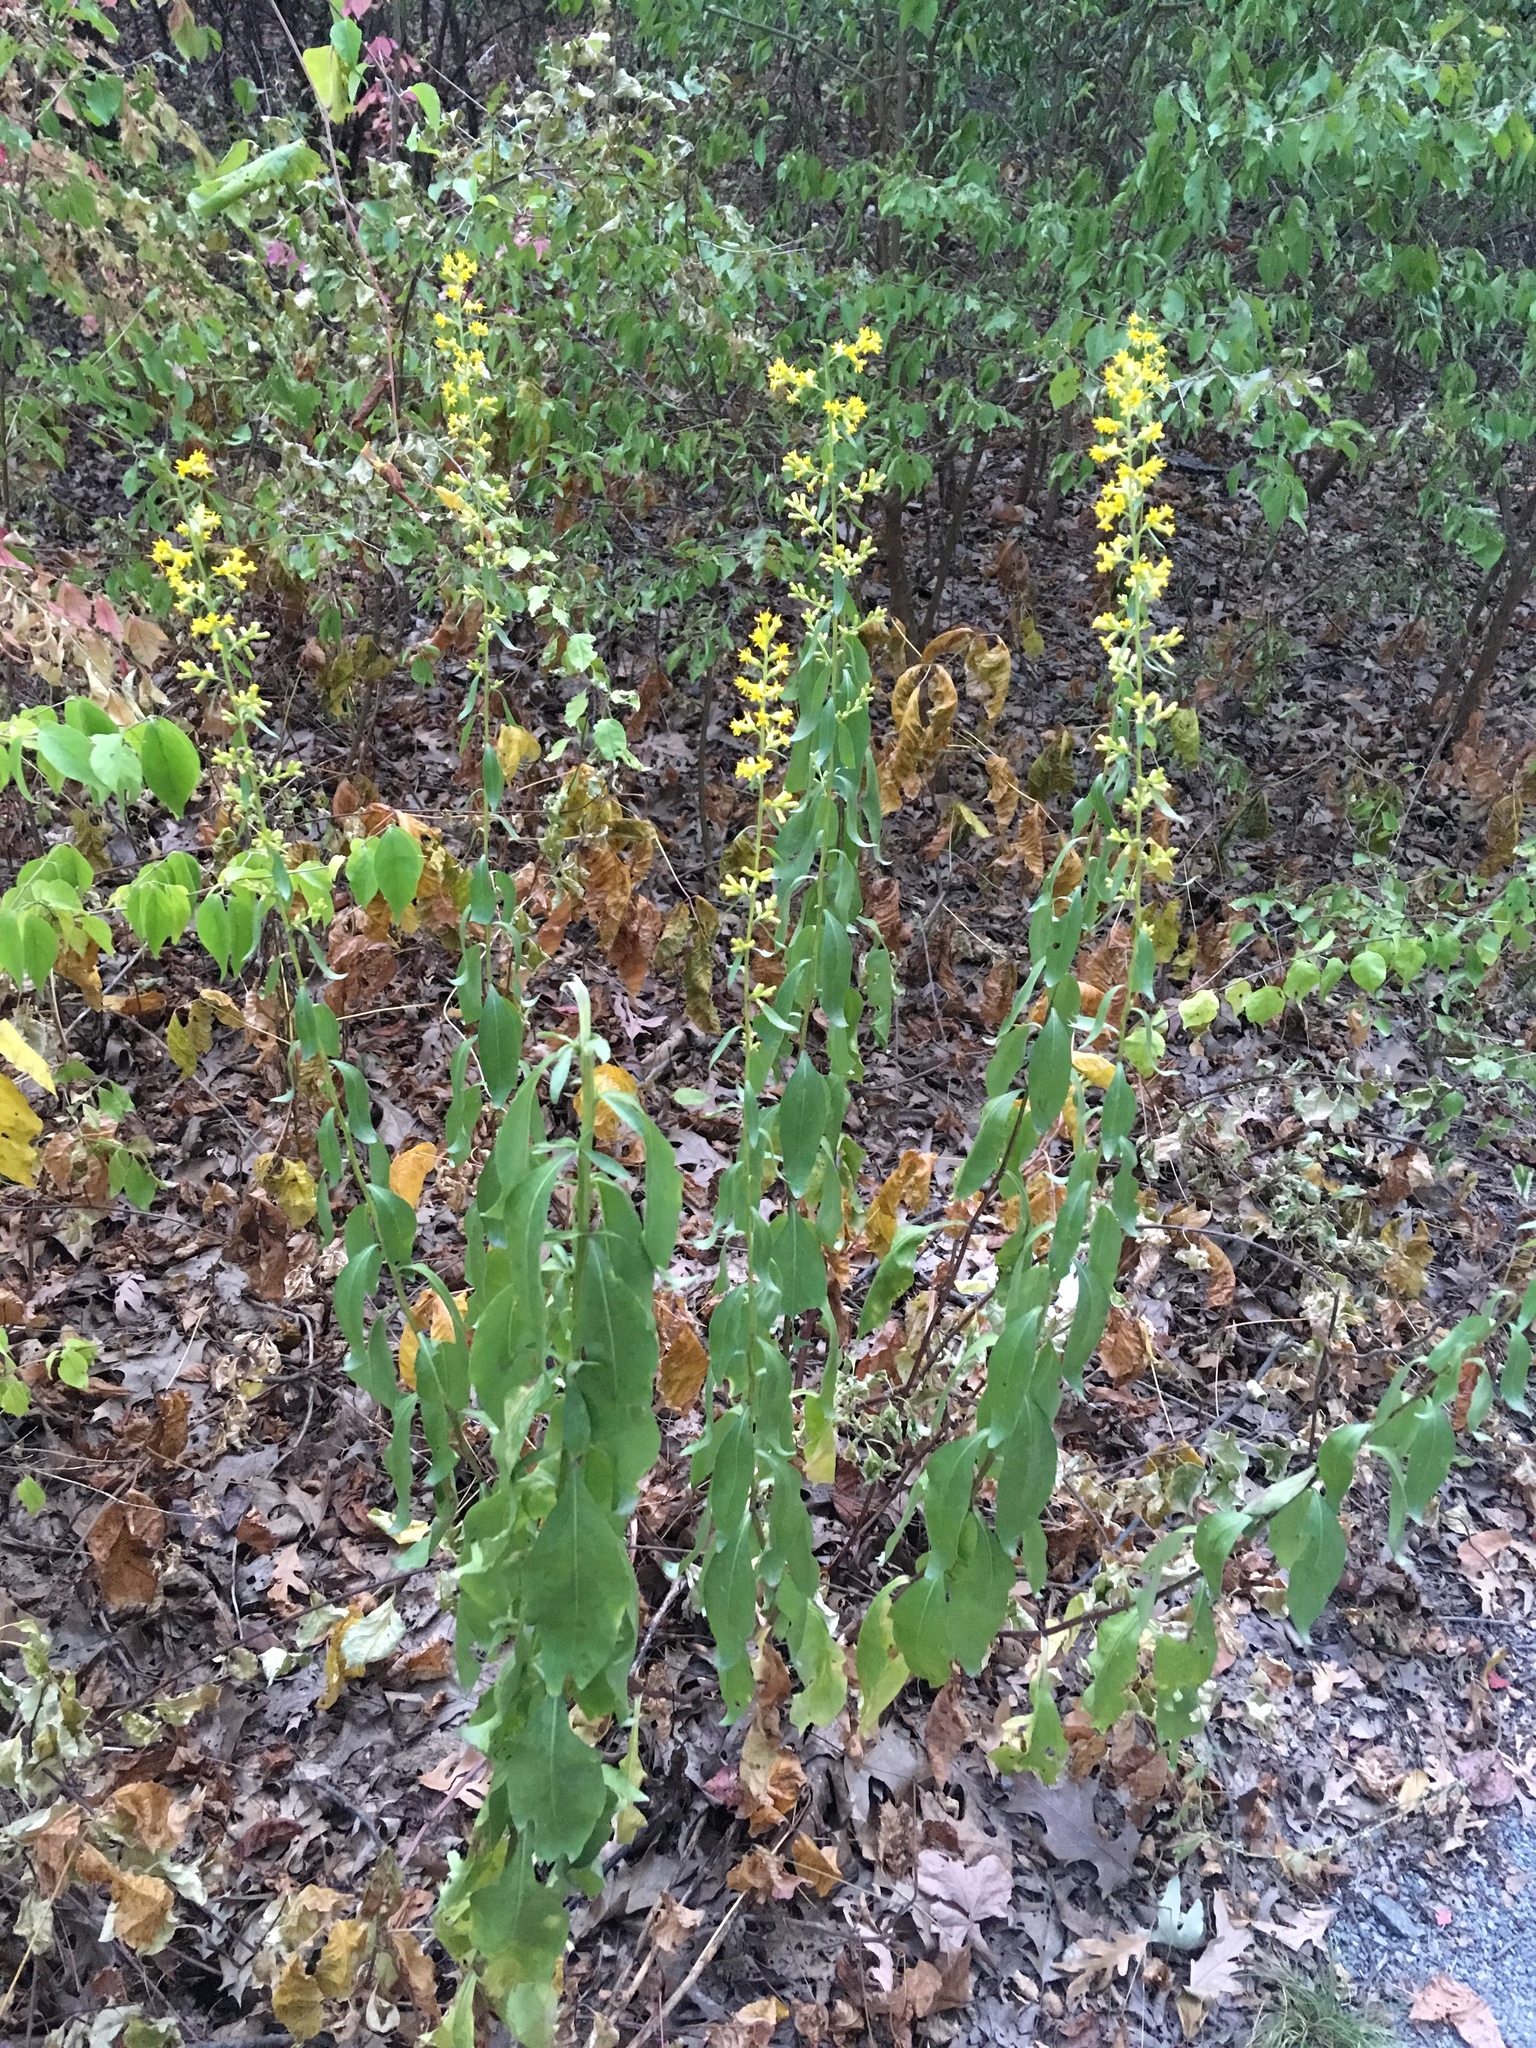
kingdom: Plantae
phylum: Tracheophyta
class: Magnoliopsida
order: Asterales
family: Asteraceae
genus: Solidago
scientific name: Solidago speciosa
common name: Showy goldenrod
